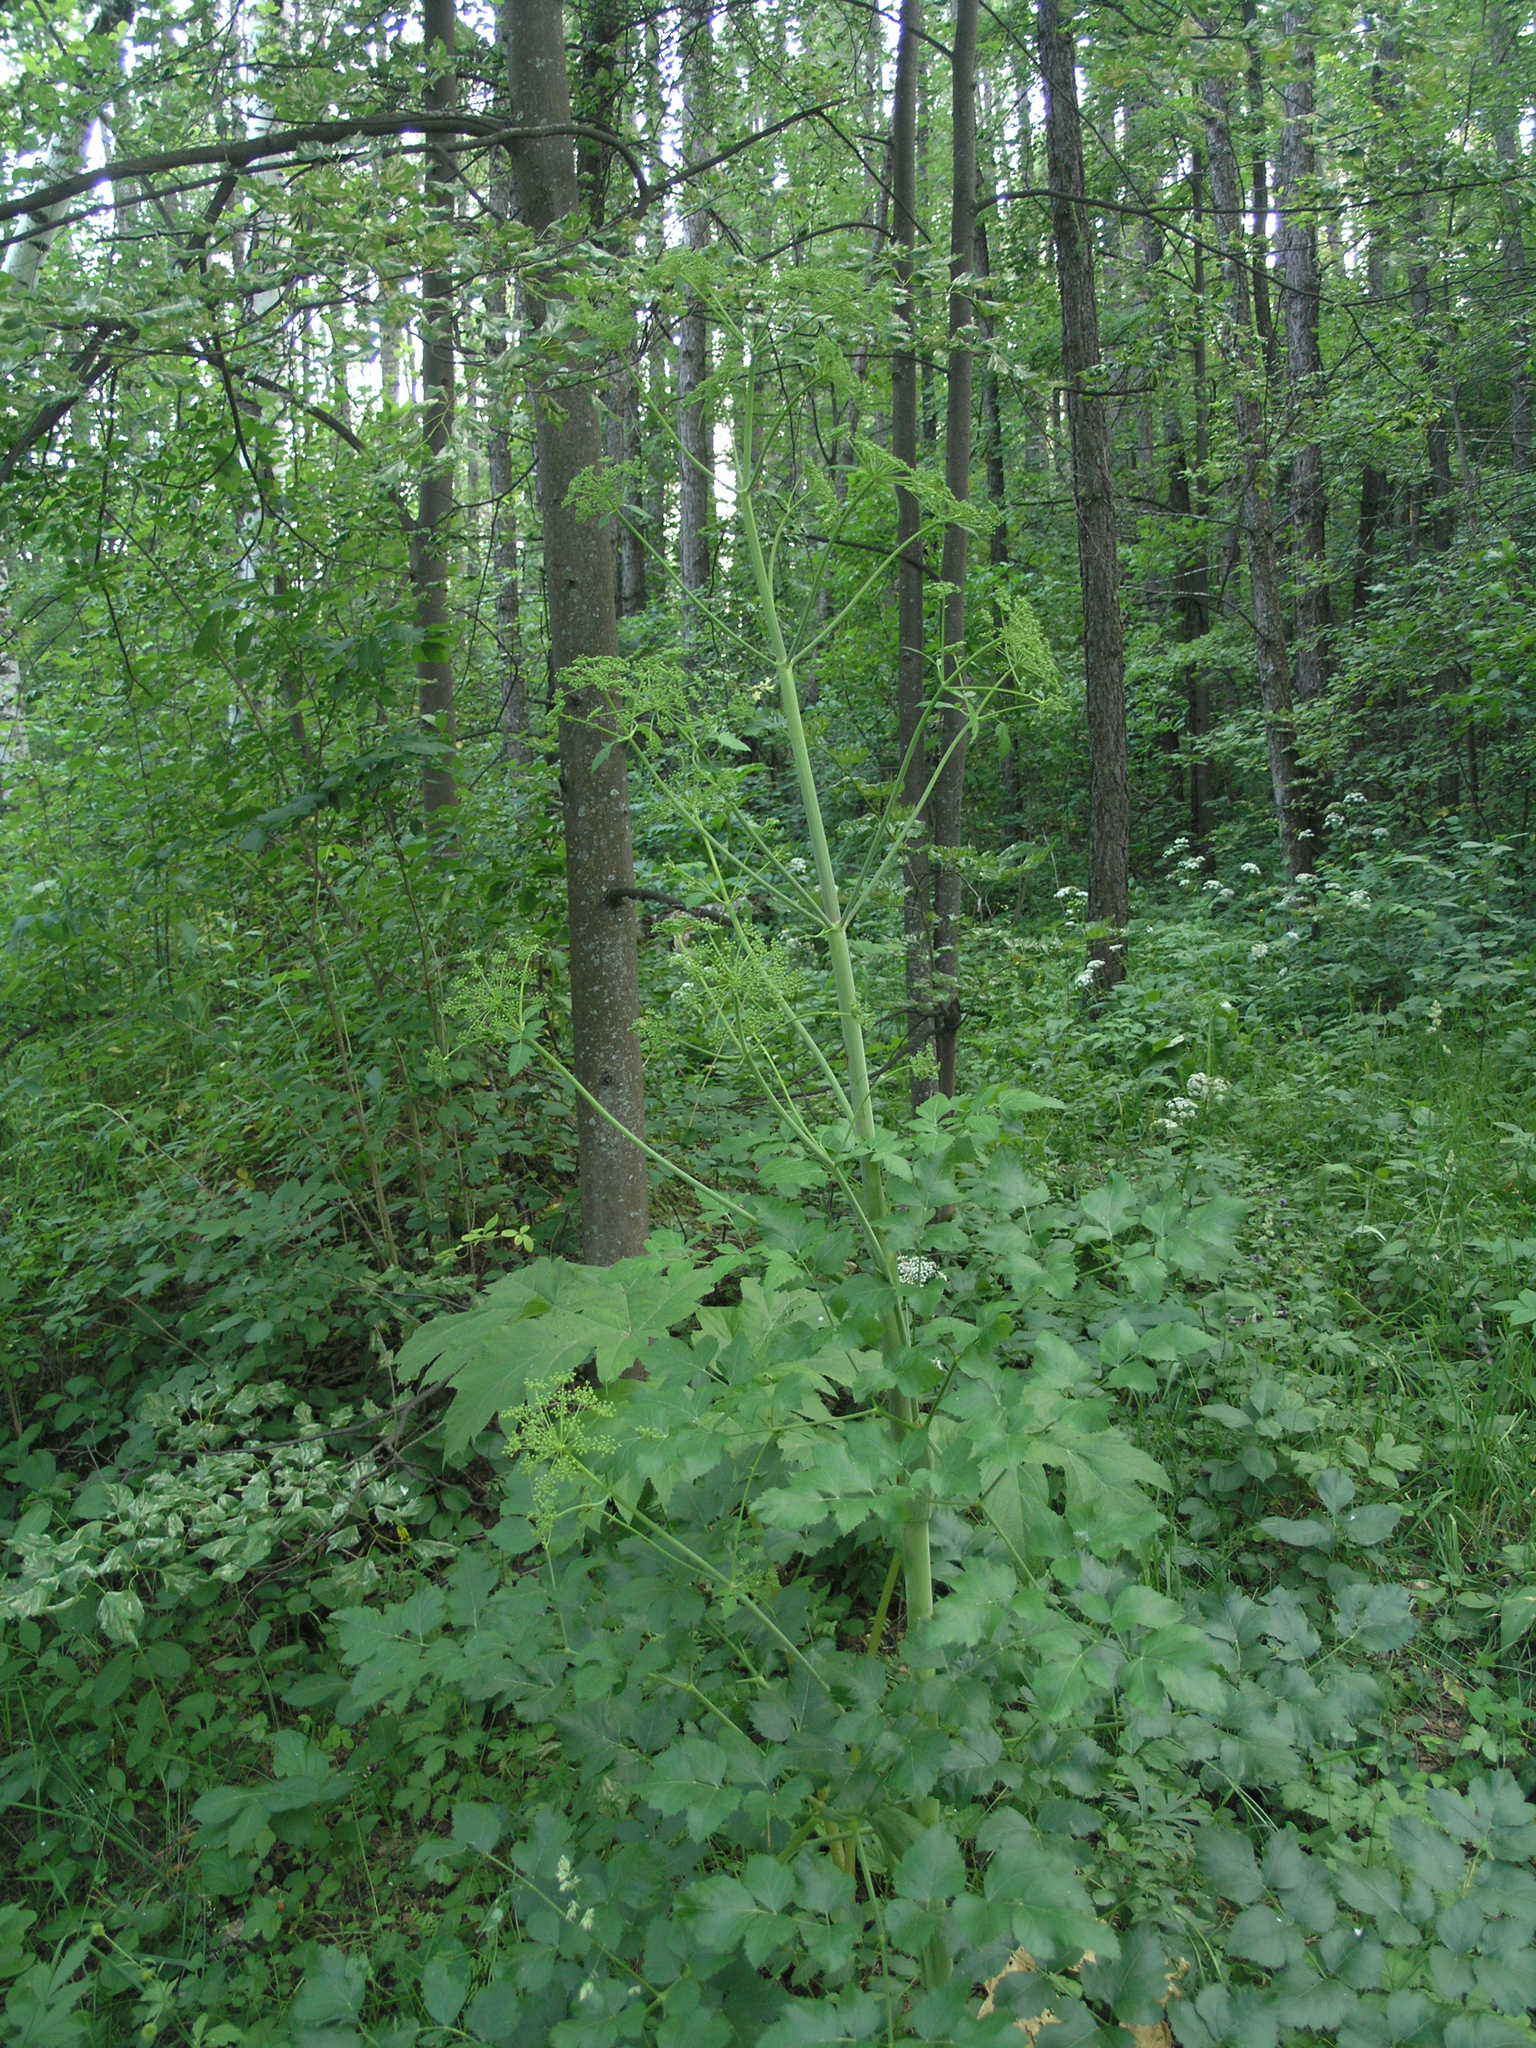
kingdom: Plantae
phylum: Tracheophyta
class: Magnoliopsida
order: Apiales
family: Apiaceae
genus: Levisticum
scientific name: Levisticum officinale
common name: Lovage
